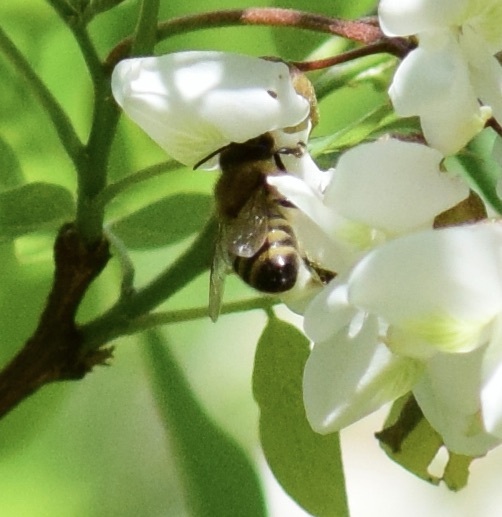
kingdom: Animalia
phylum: Arthropoda
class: Insecta
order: Hymenoptera
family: Apidae
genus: Apis
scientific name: Apis mellifera
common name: Honey bee
